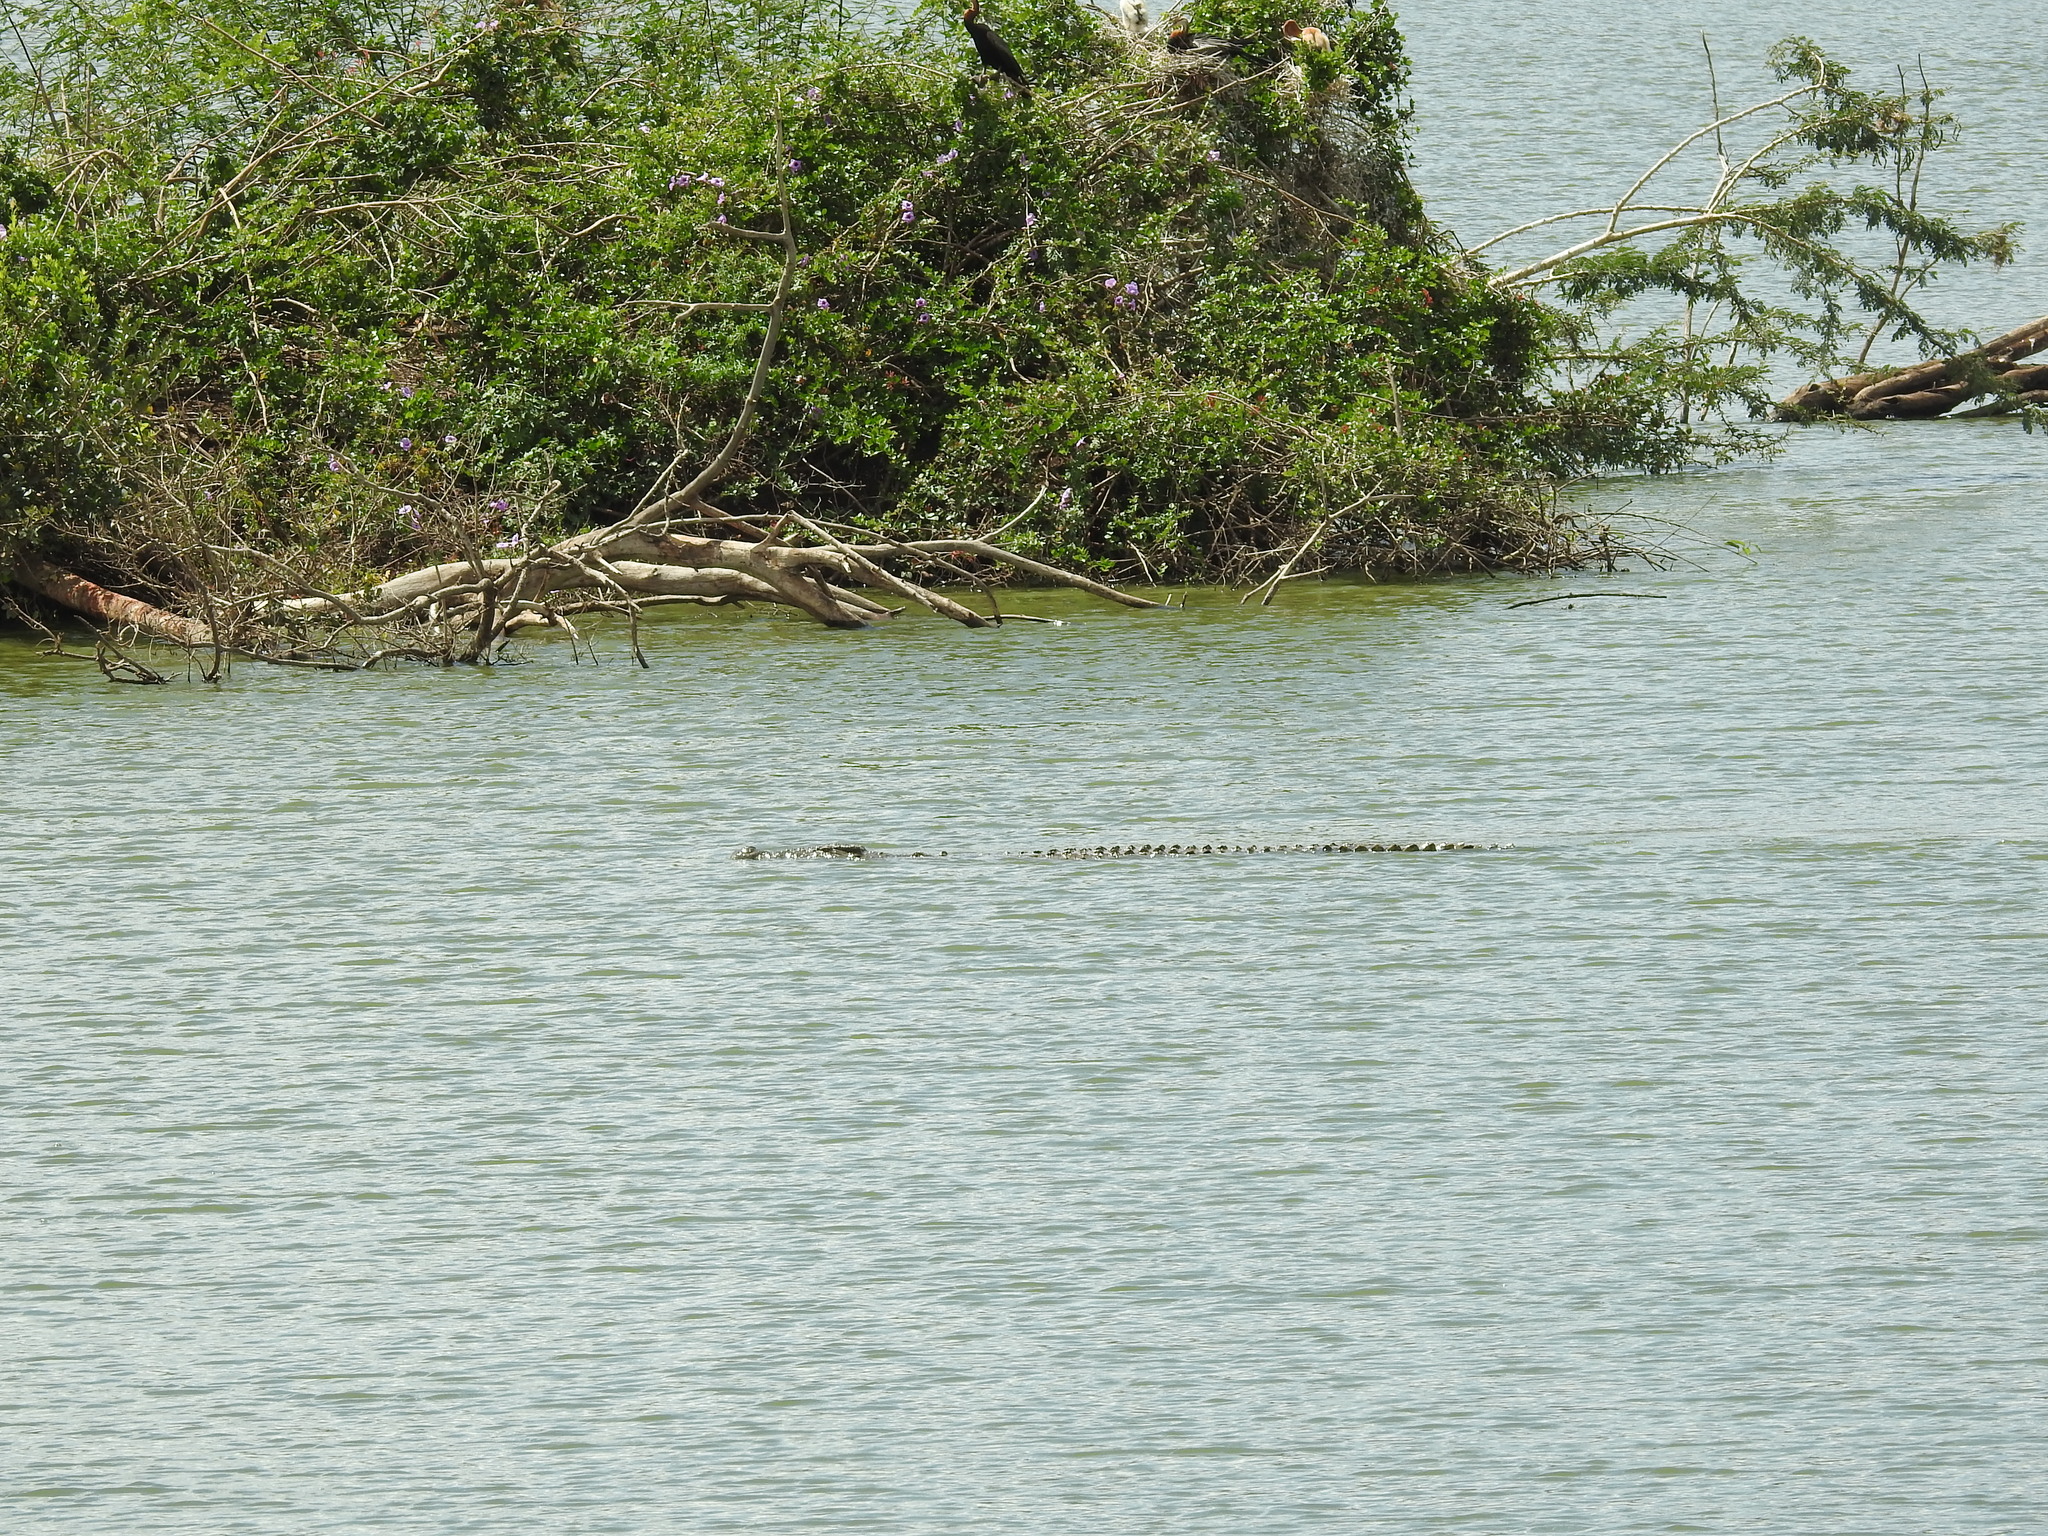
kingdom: Animalia
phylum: Chordata
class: Crocodylia
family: Crocodylidae
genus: Crocodylus
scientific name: Crocodylus niloticus
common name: Nile crocodile
